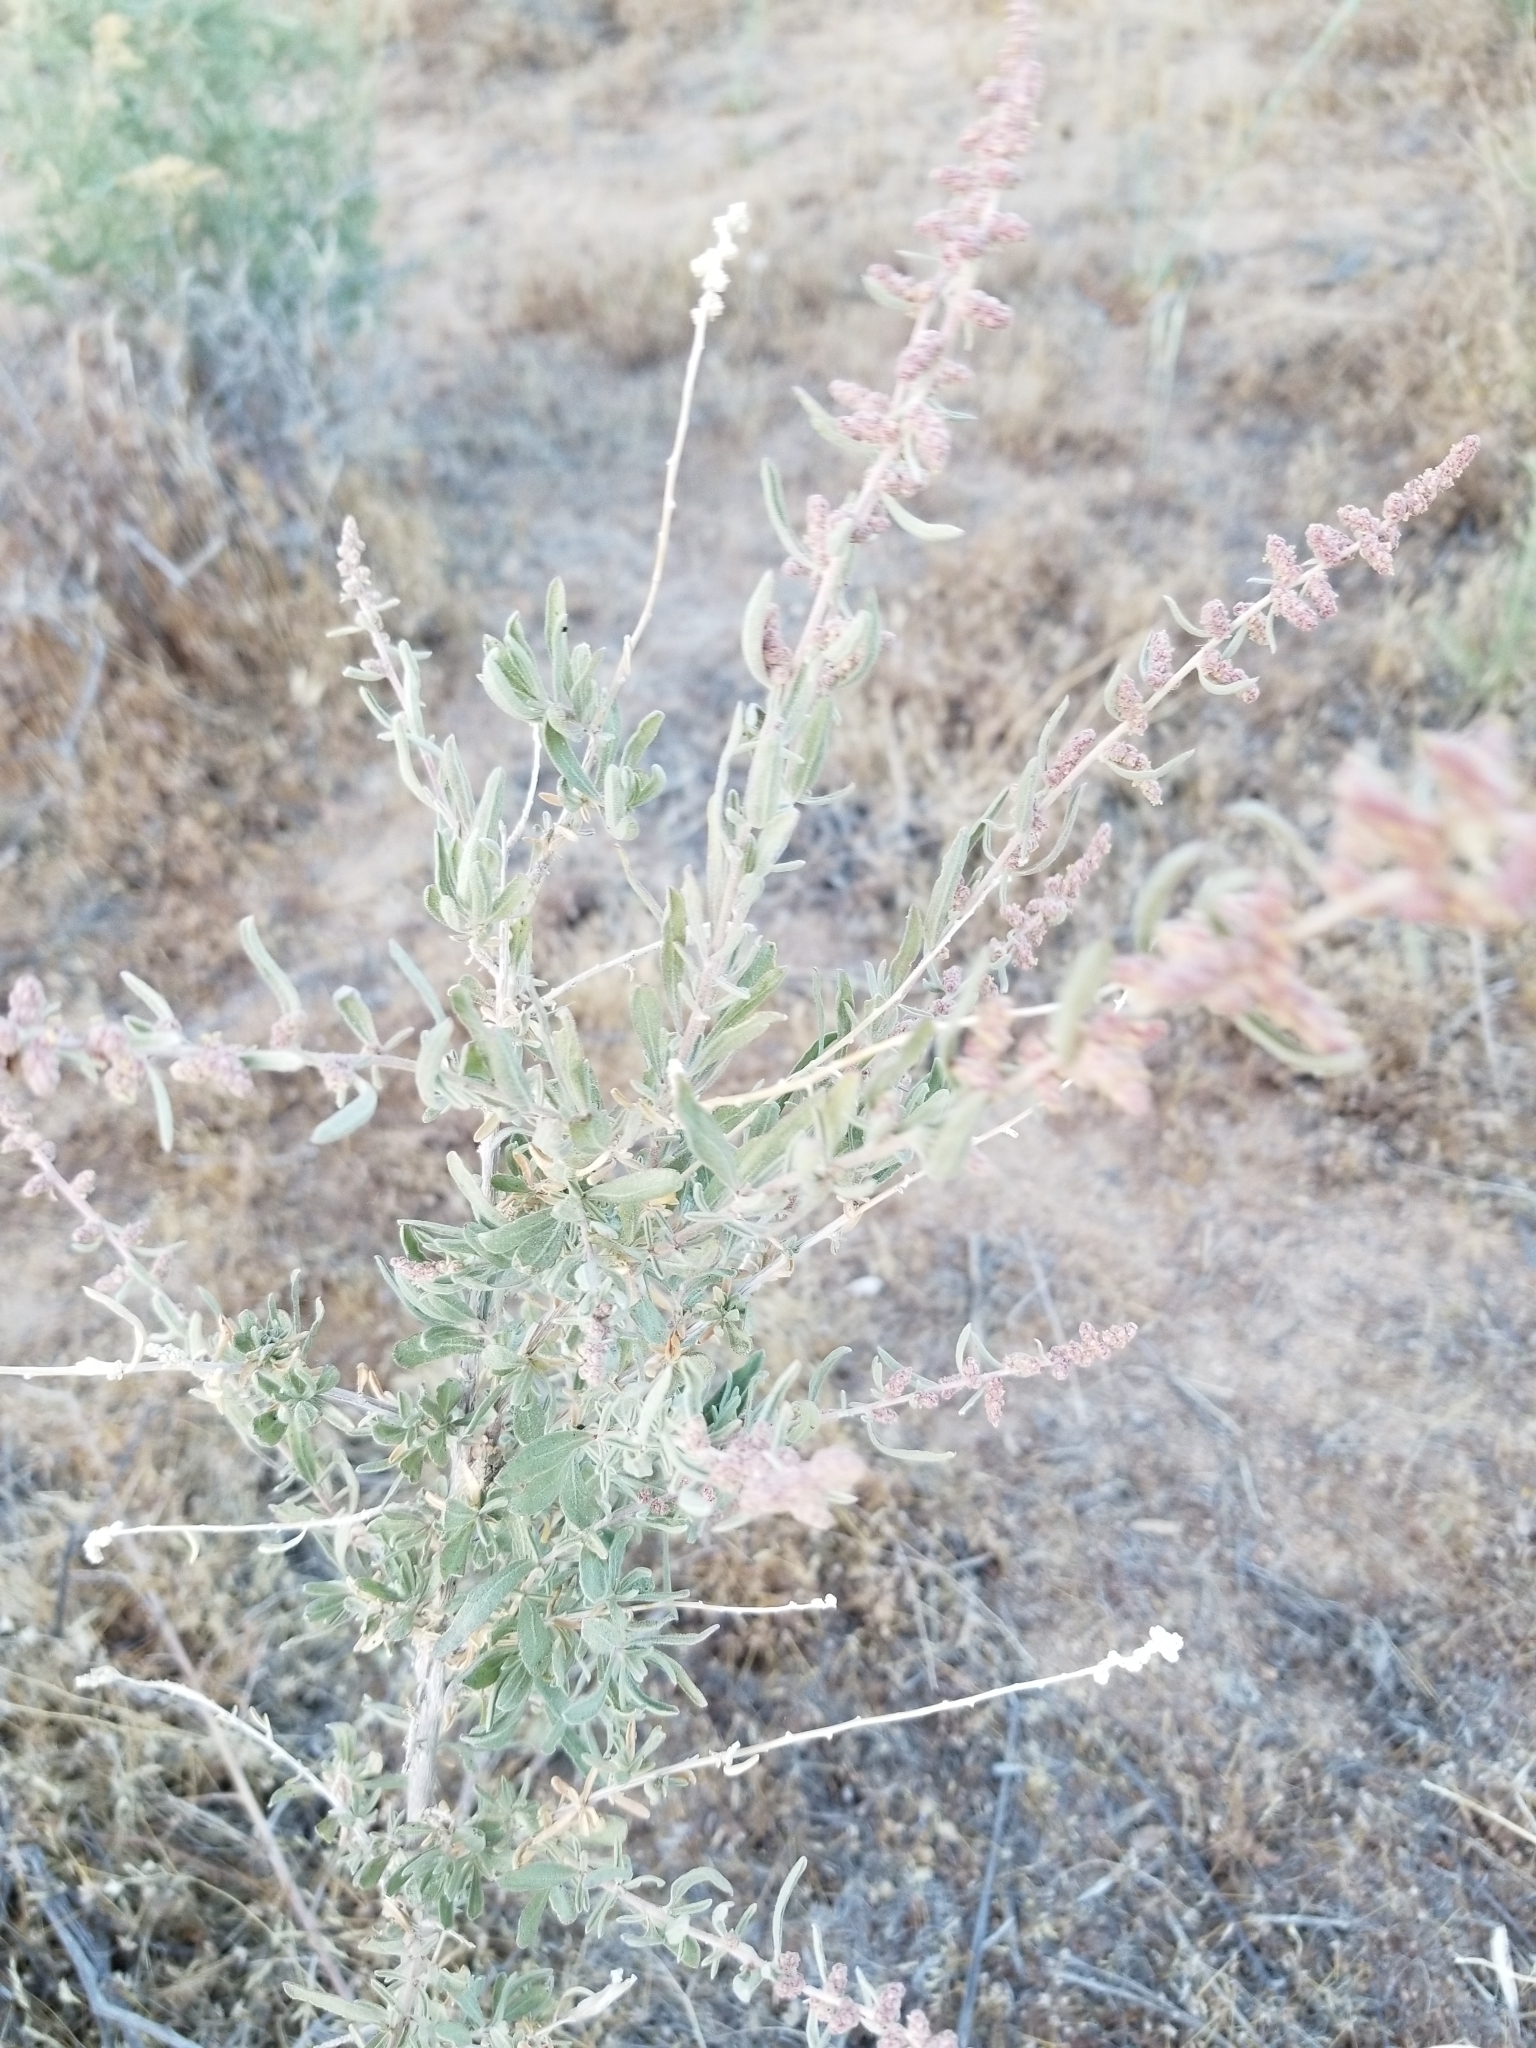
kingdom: Plantae
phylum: Tracheophyta
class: Magnoliopsida
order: Caryophyllales
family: Amaranthaceae
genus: Atriplex
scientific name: Atriplex canescens
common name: Four-wing saltbush
